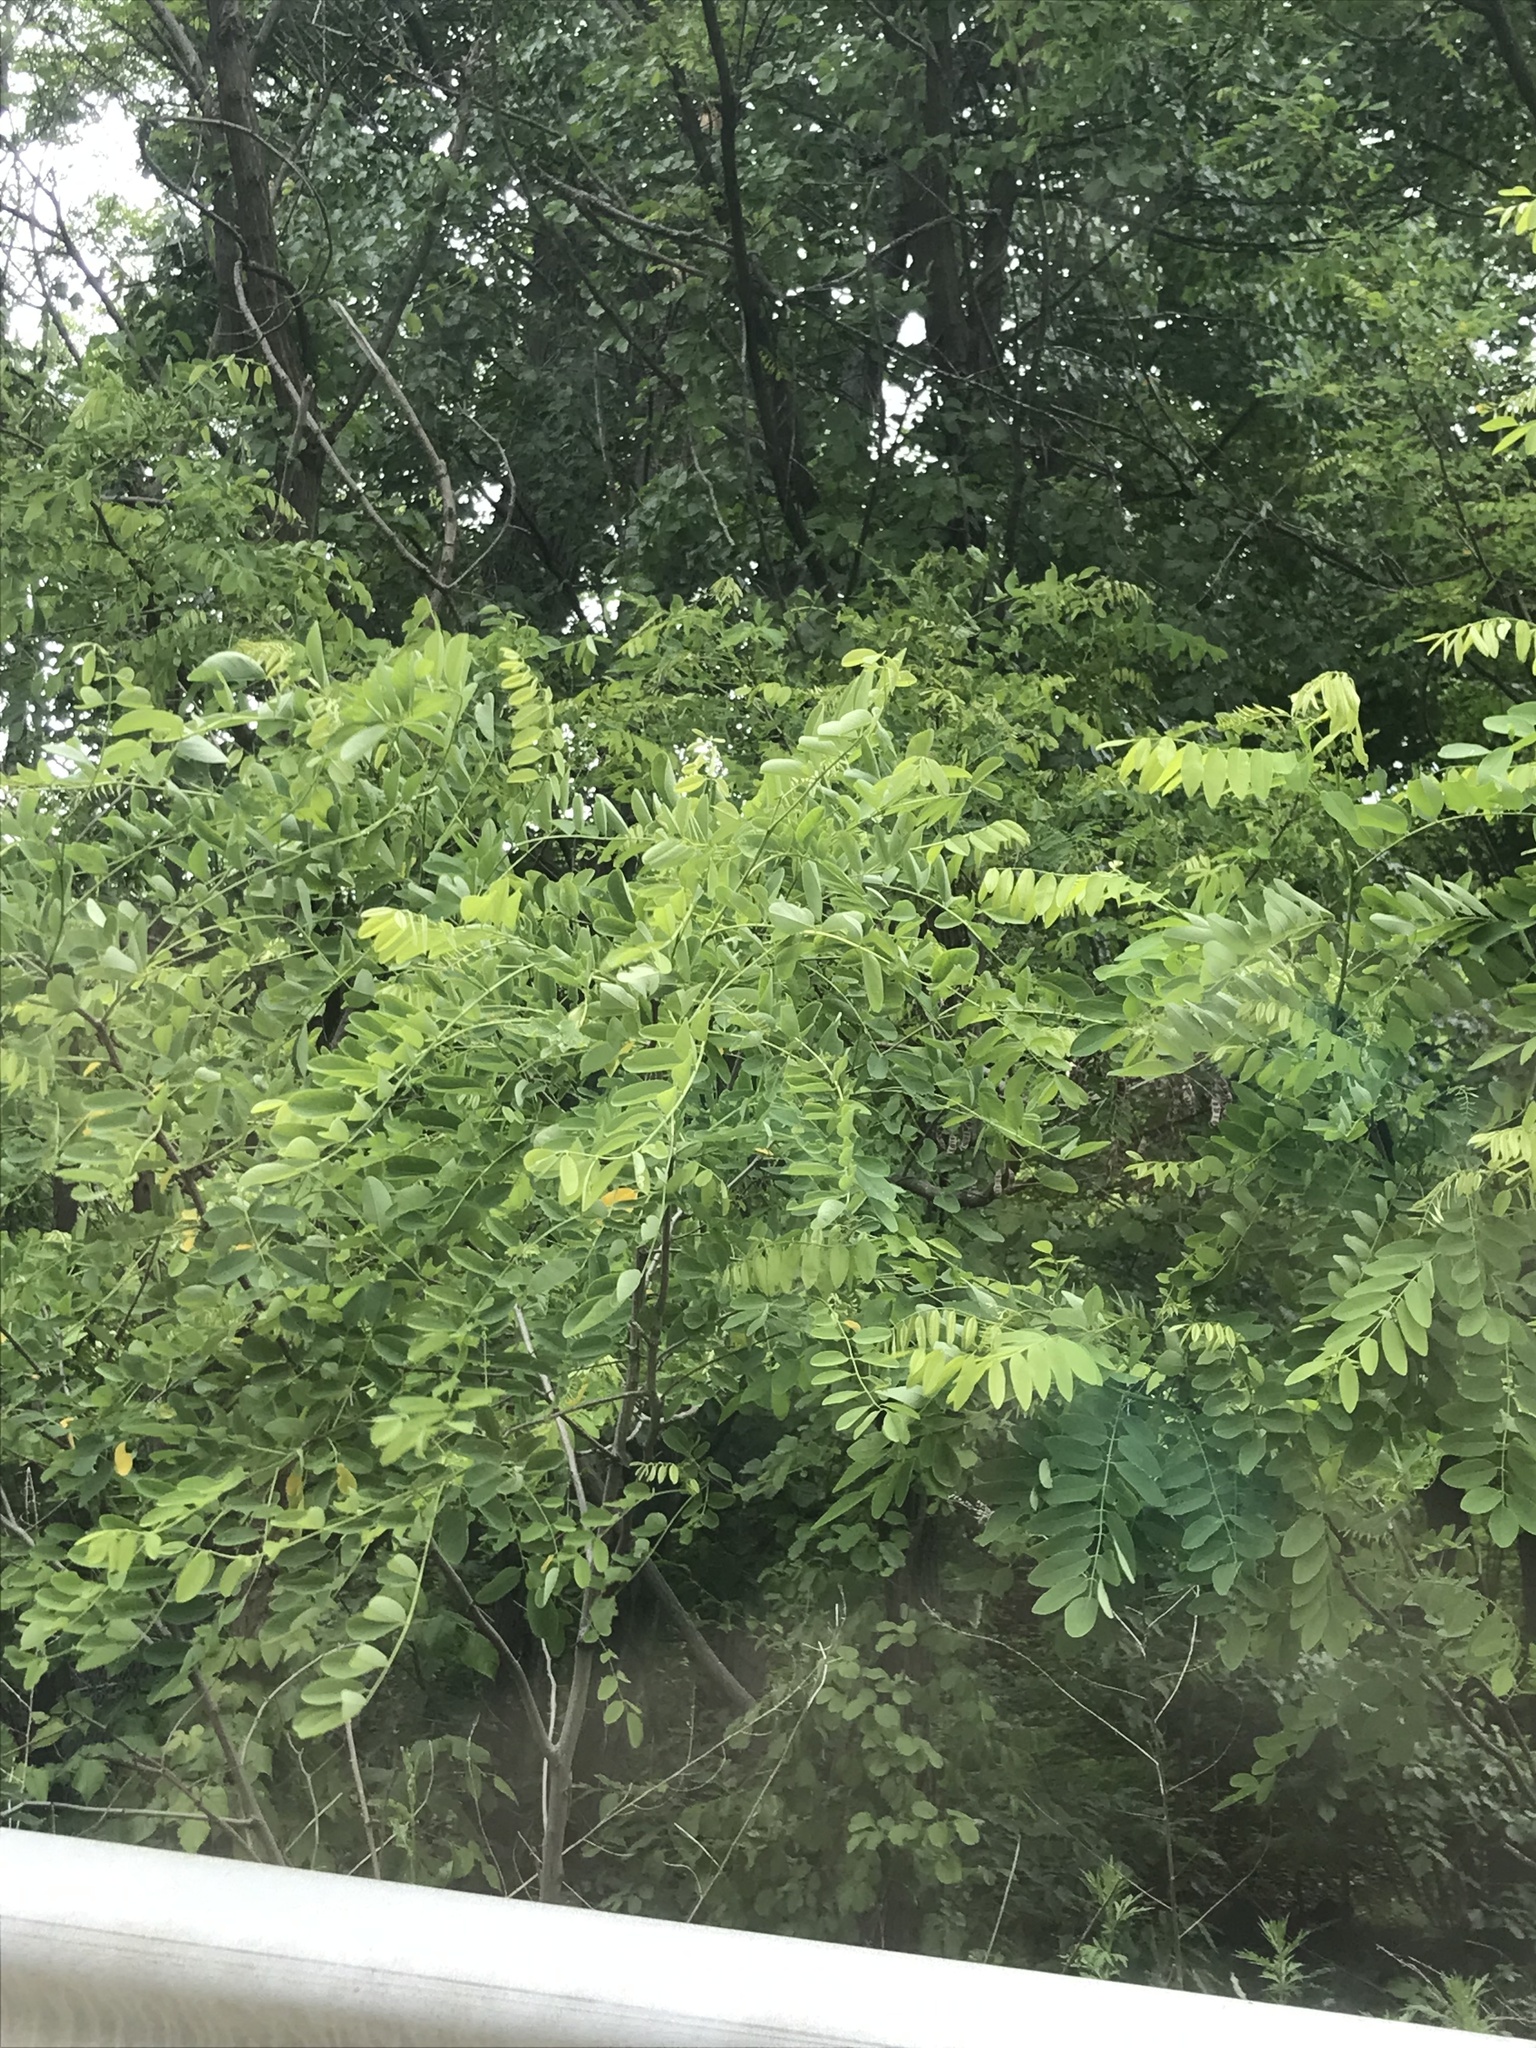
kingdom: Plantae
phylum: Tracheophyta
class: Magnoliopsida
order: Fabales
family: Fabaceae
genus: Robinia
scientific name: Robinia pseudoacacia
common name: Black locust
